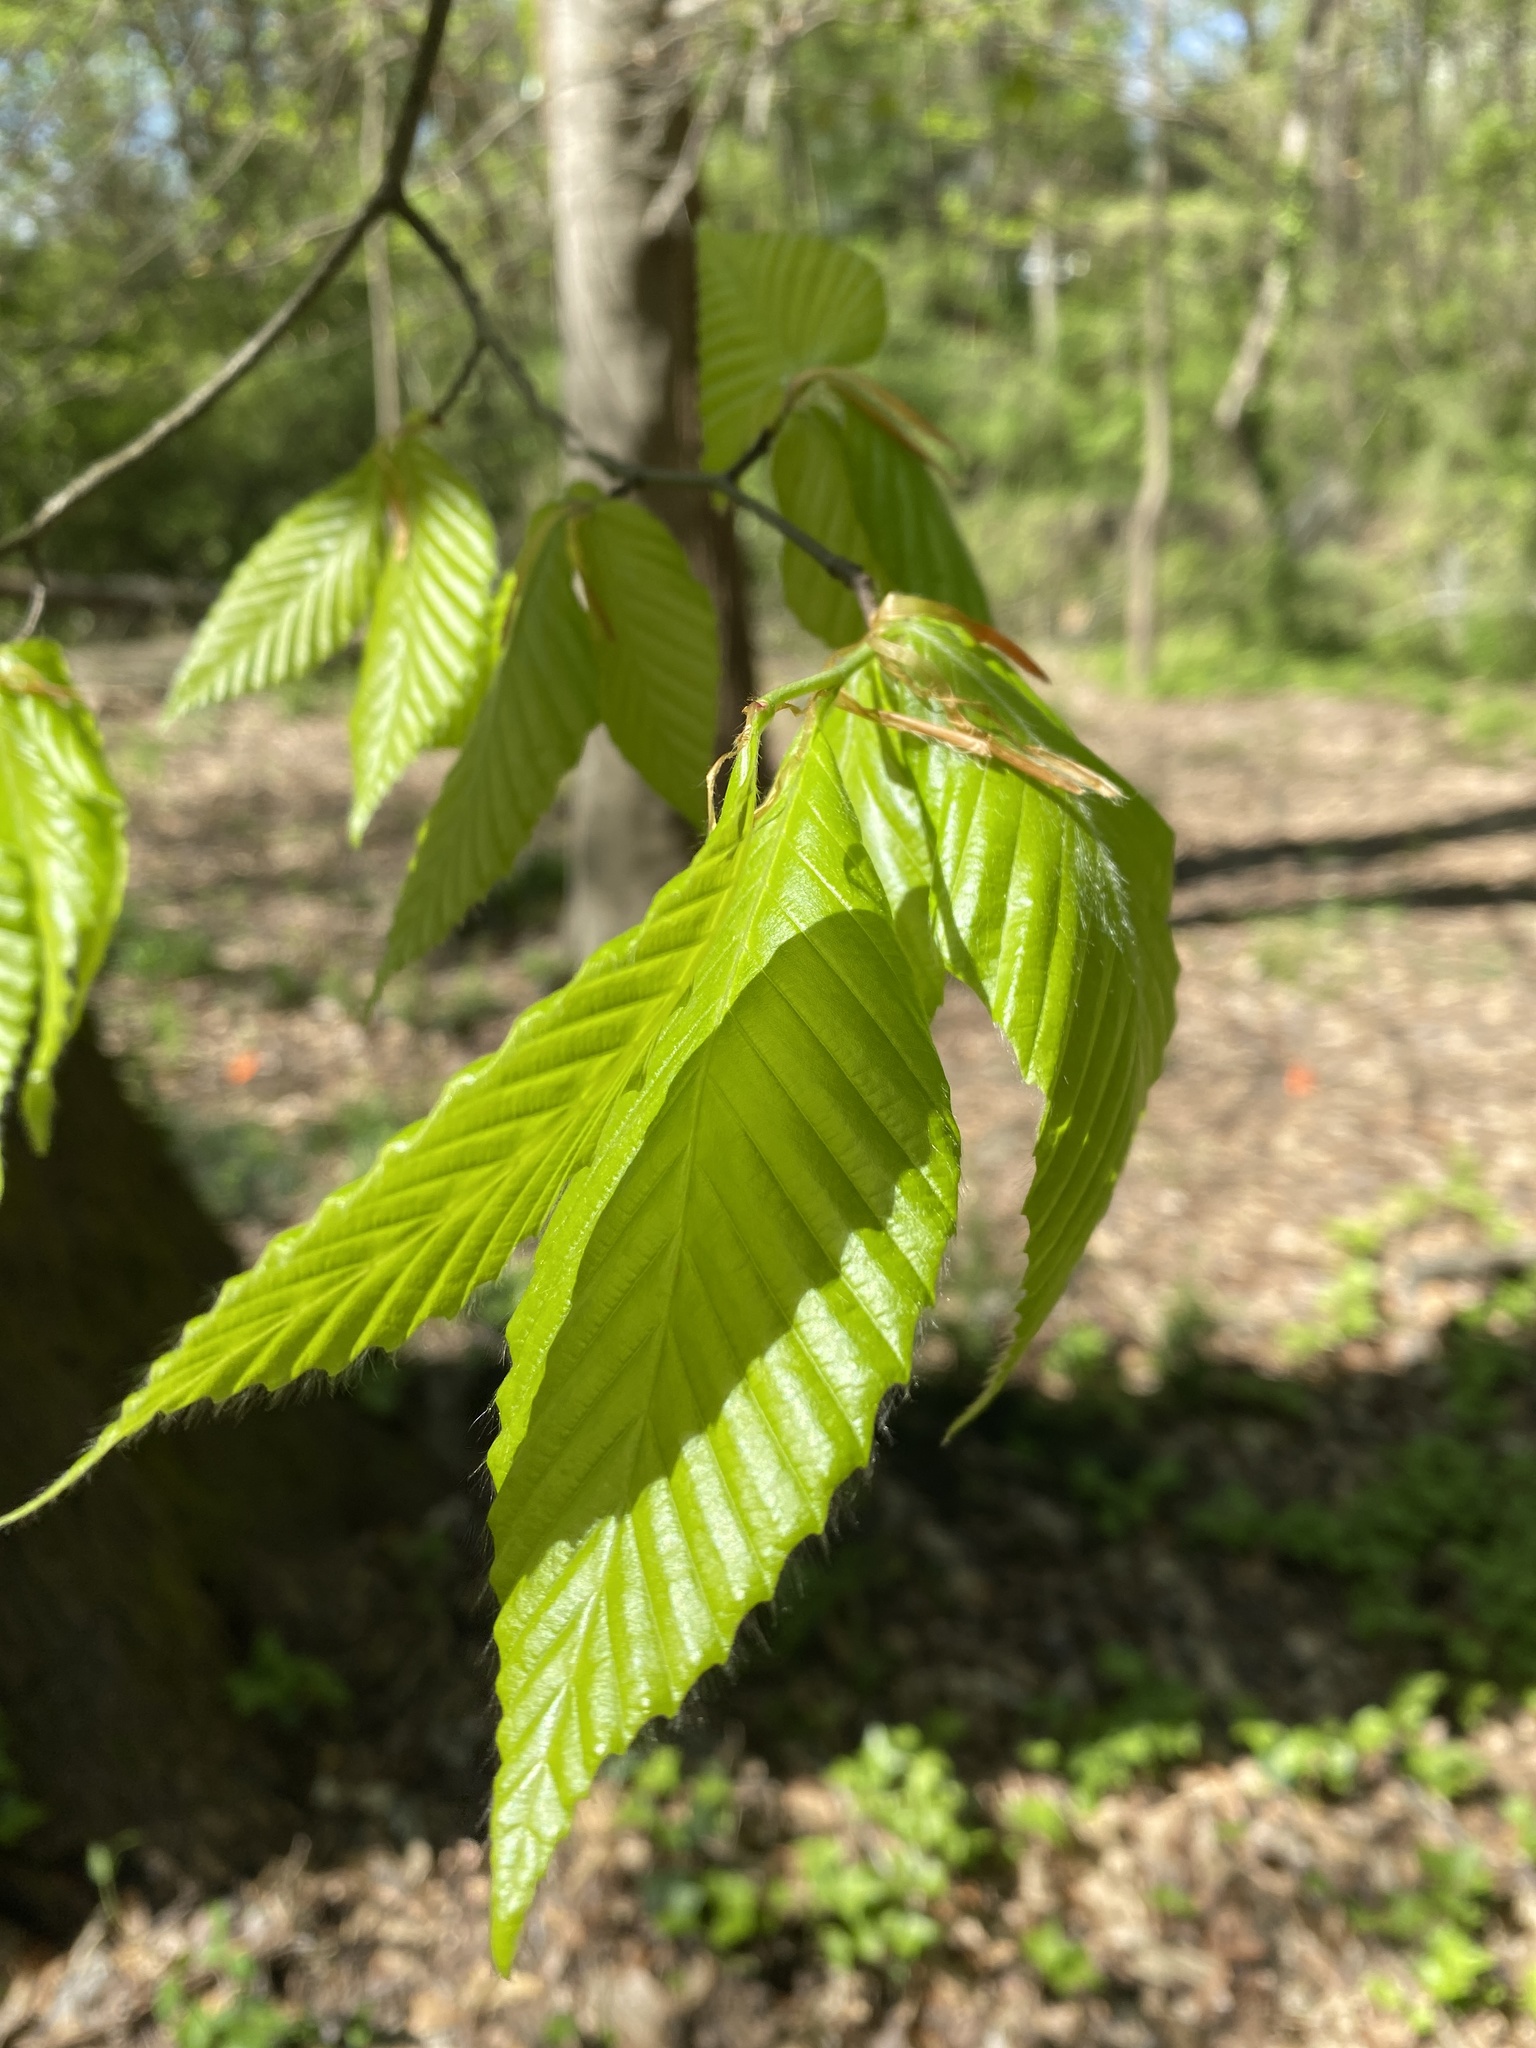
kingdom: Plantae
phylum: Tracheophyta
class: Magnoliopsida
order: Fagales
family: Fagaceae
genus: Fagus
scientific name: Fagus grandifolia
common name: American beech
